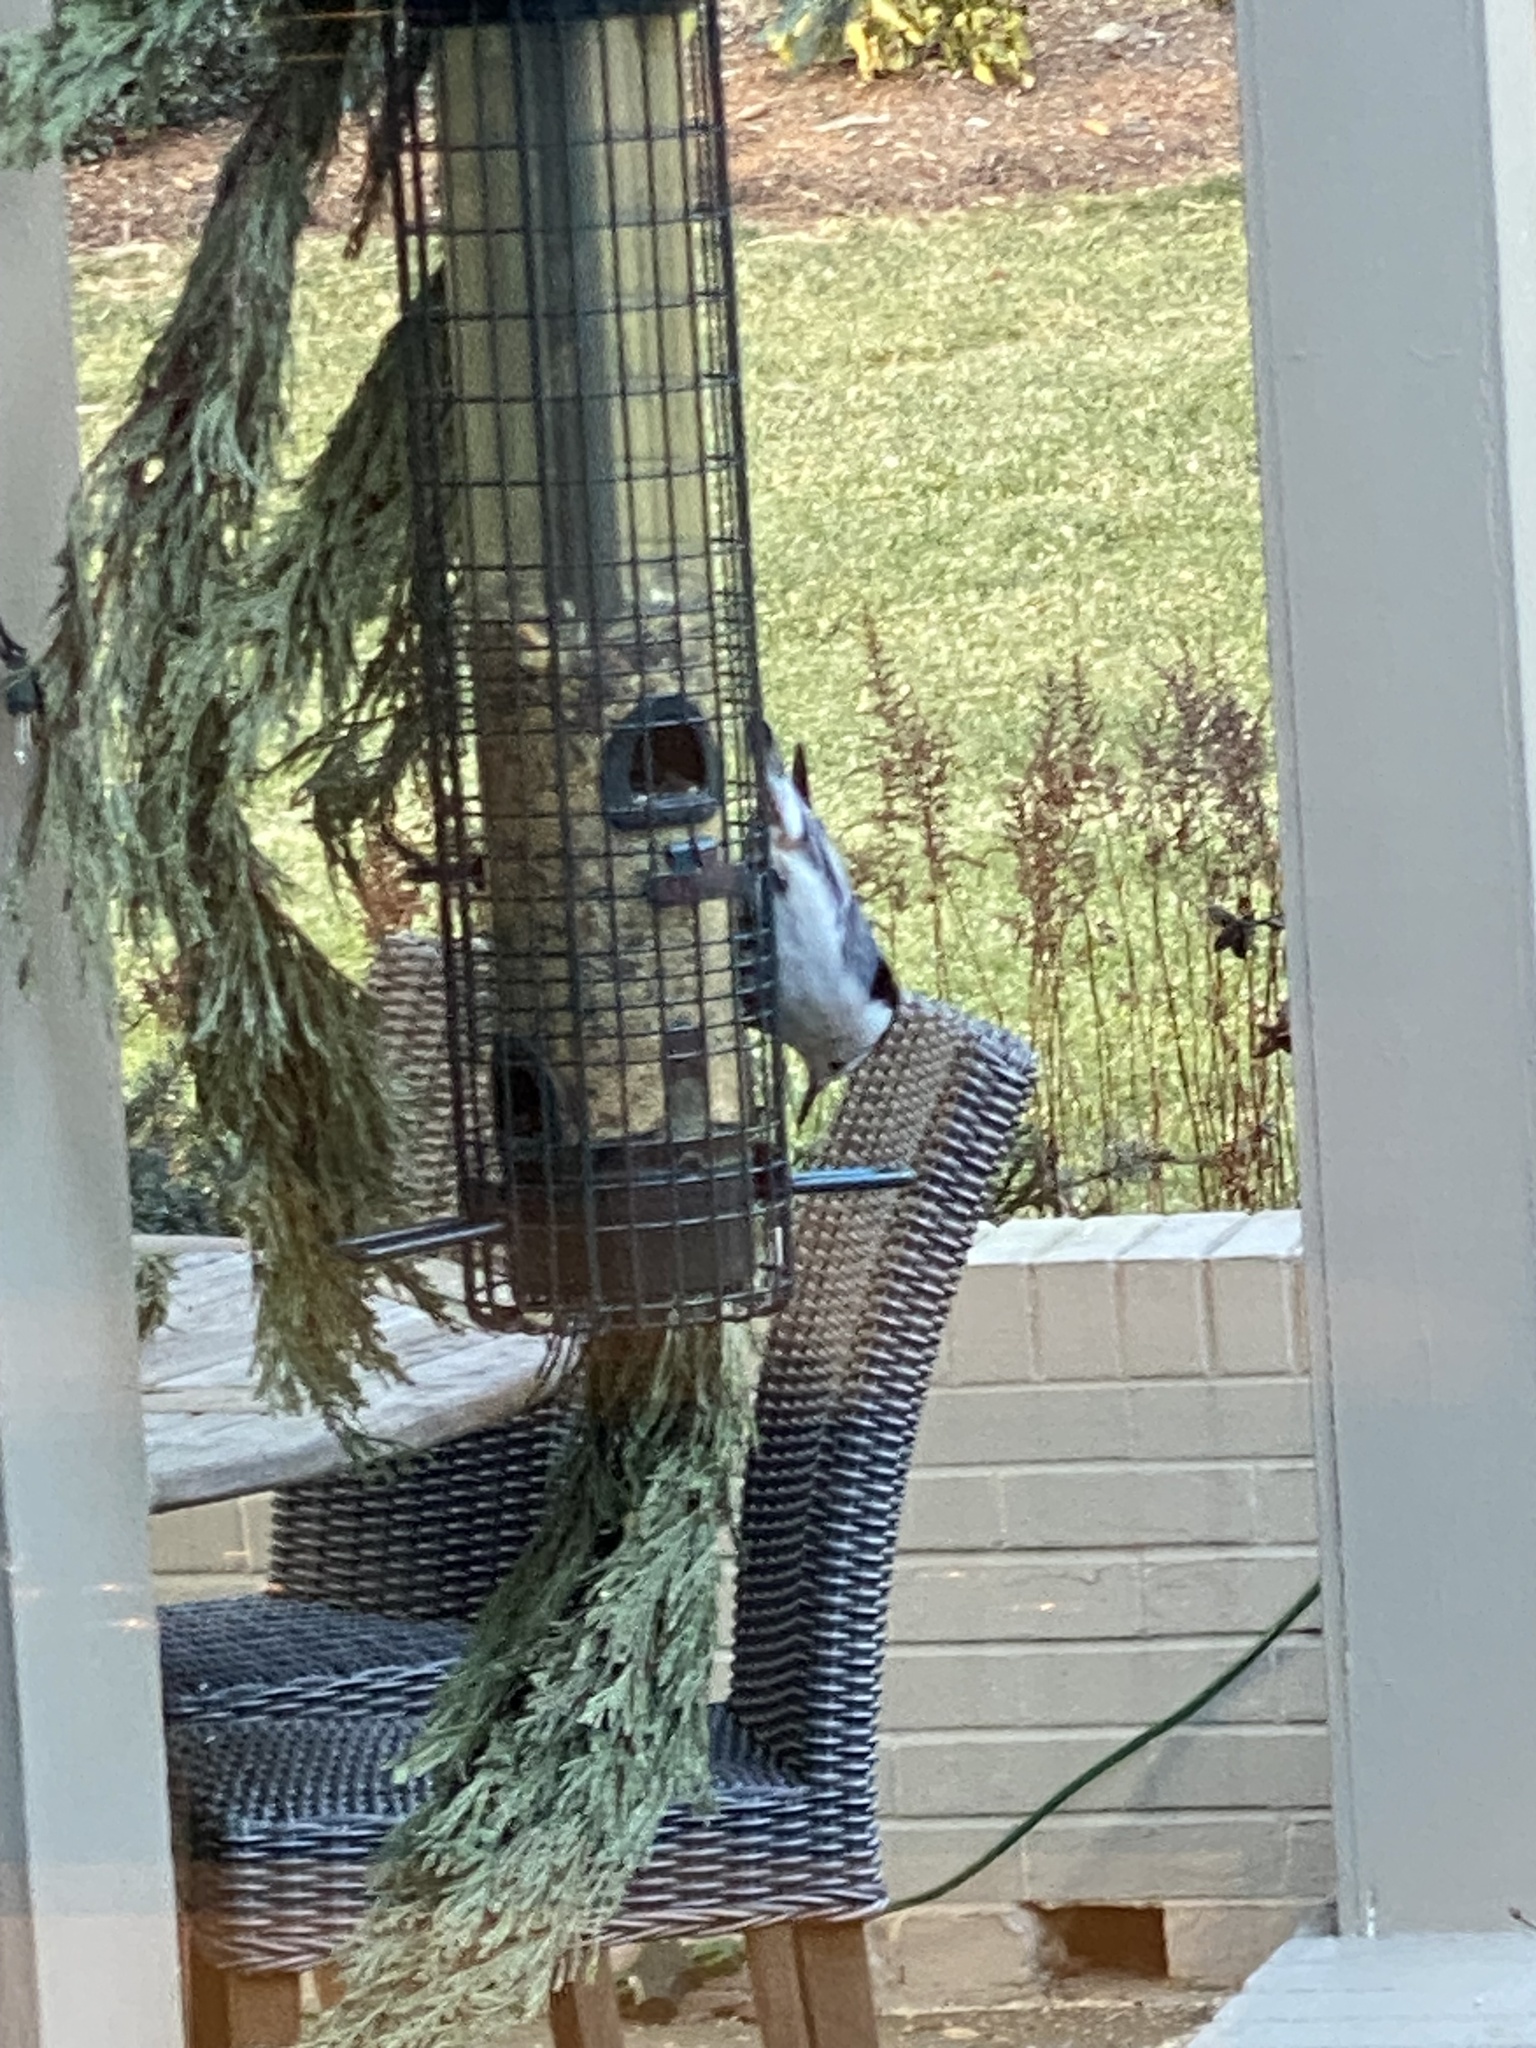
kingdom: Animalia
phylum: Chordata
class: Aves
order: Passeriformes
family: Sittidae
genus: Sitta
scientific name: Sitta carolinensis
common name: White-breasted nuthatch
